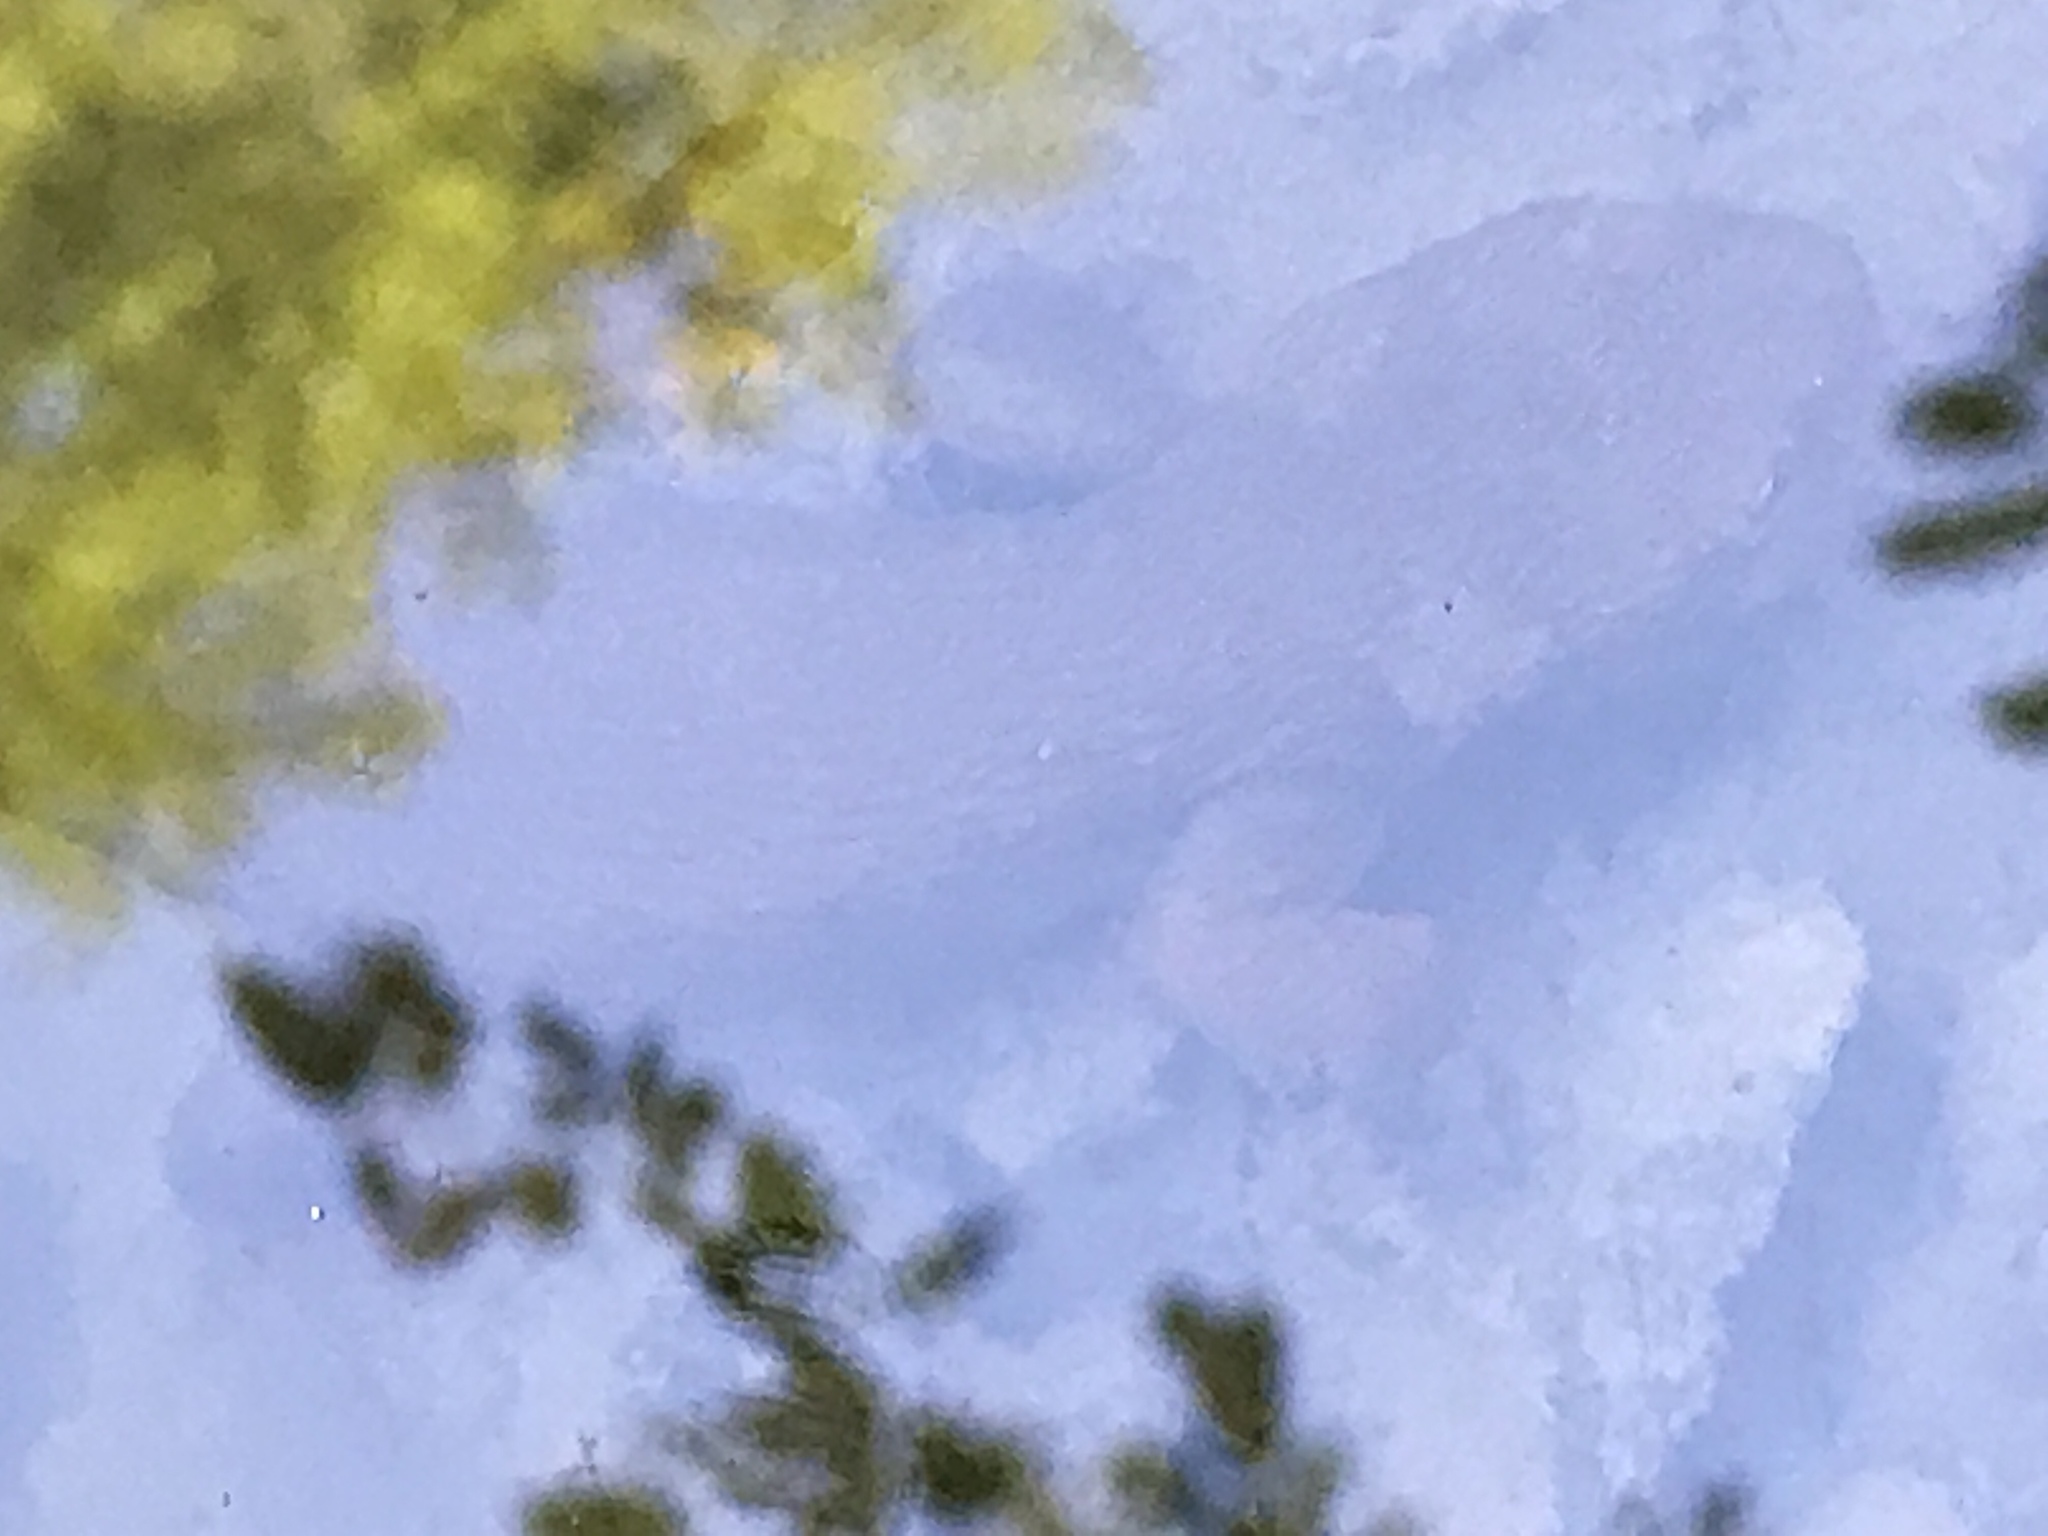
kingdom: Animalia
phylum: Chordata
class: Amphibia
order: Caudata
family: Salamandridae
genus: Taricha
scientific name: Taricha granulosa
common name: Roughskin newt
